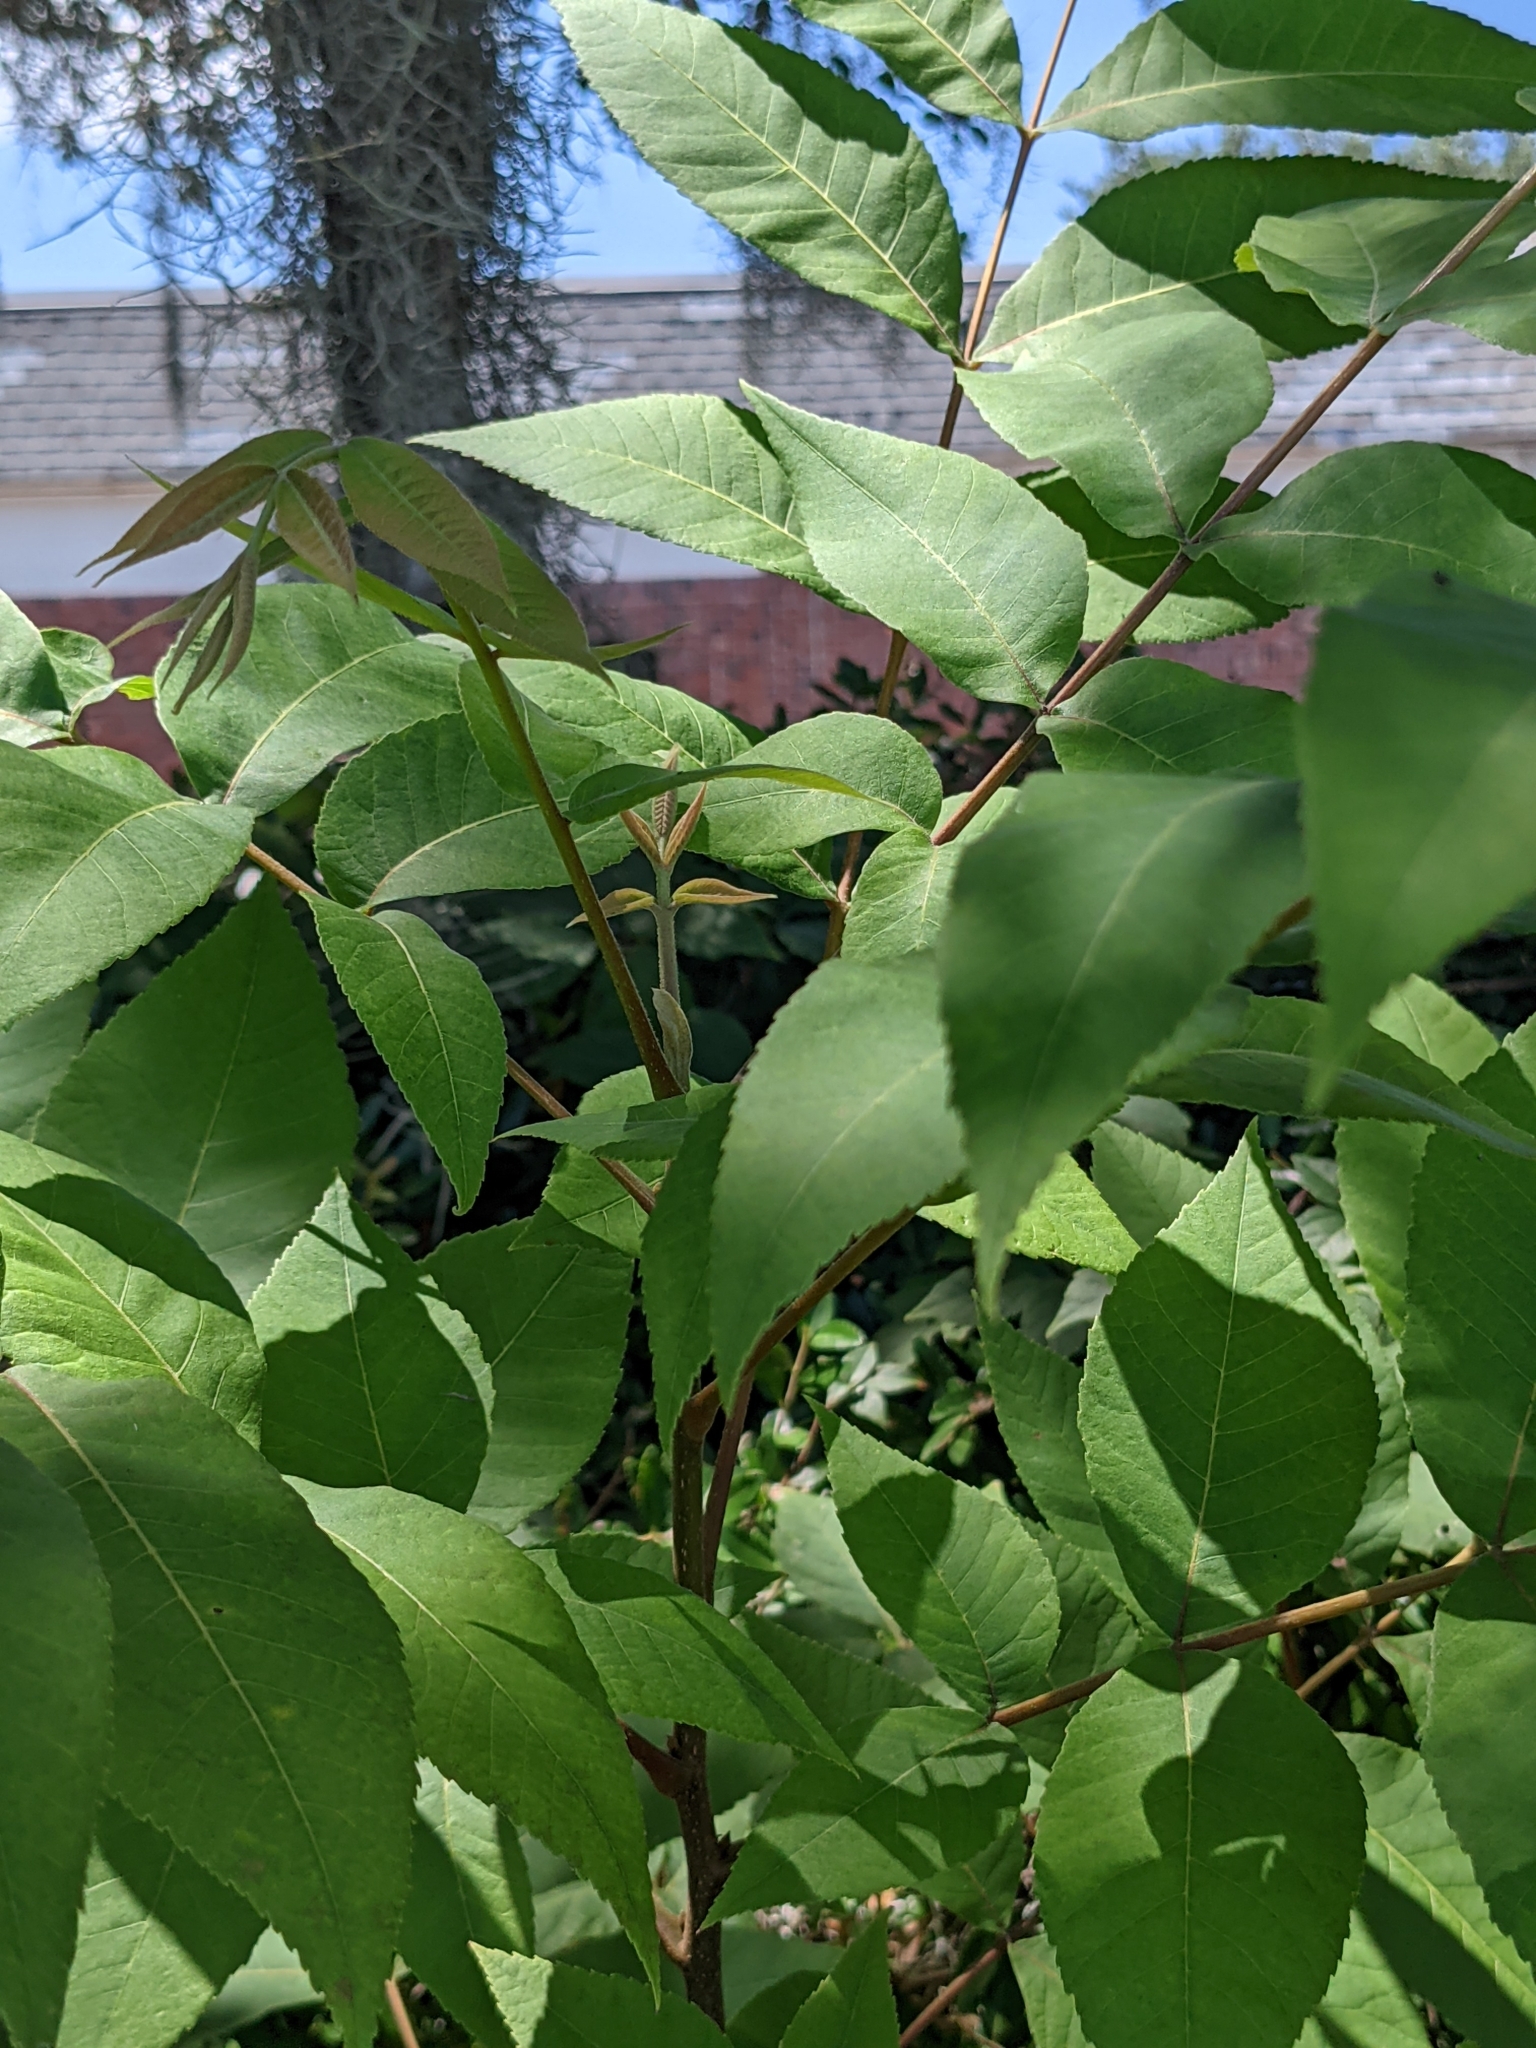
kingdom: Plantae
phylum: Tracheophyta
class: Magnoliopsida
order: Fagales
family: Juglandaceae
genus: Carya
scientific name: Carya illinoinensis
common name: Pecan
